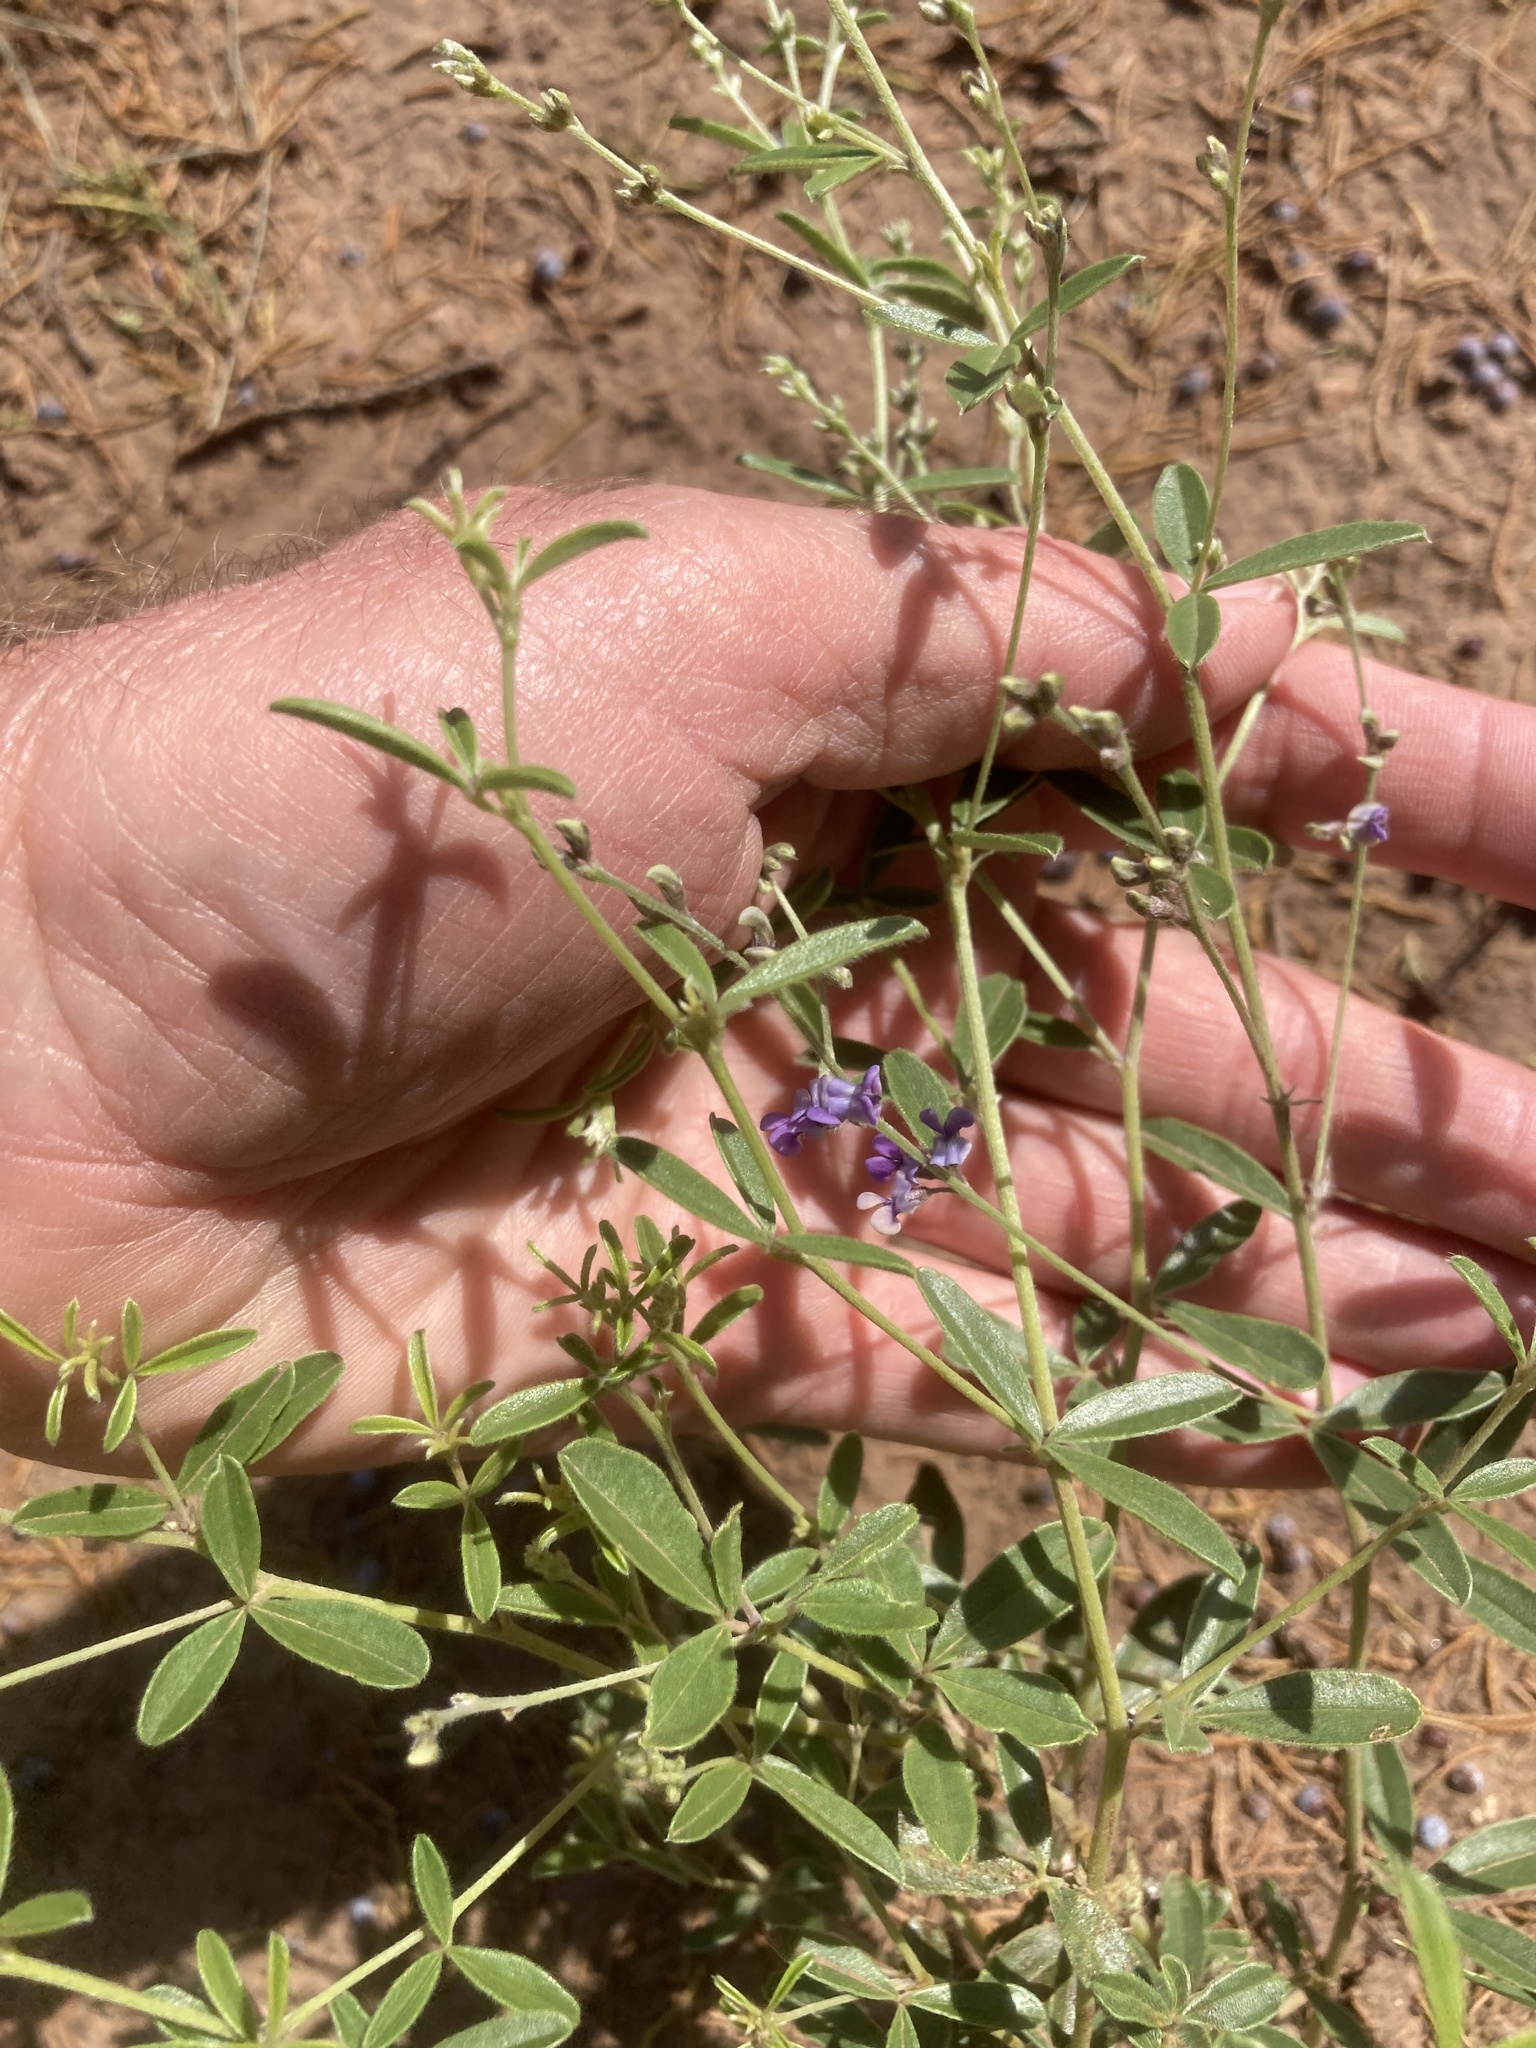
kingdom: Plantae
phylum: Tracheophyta
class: Magnoliopsida
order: Fabales
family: Fabaceae
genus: Pediomelum
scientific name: Pediomelum tenuiflorum
